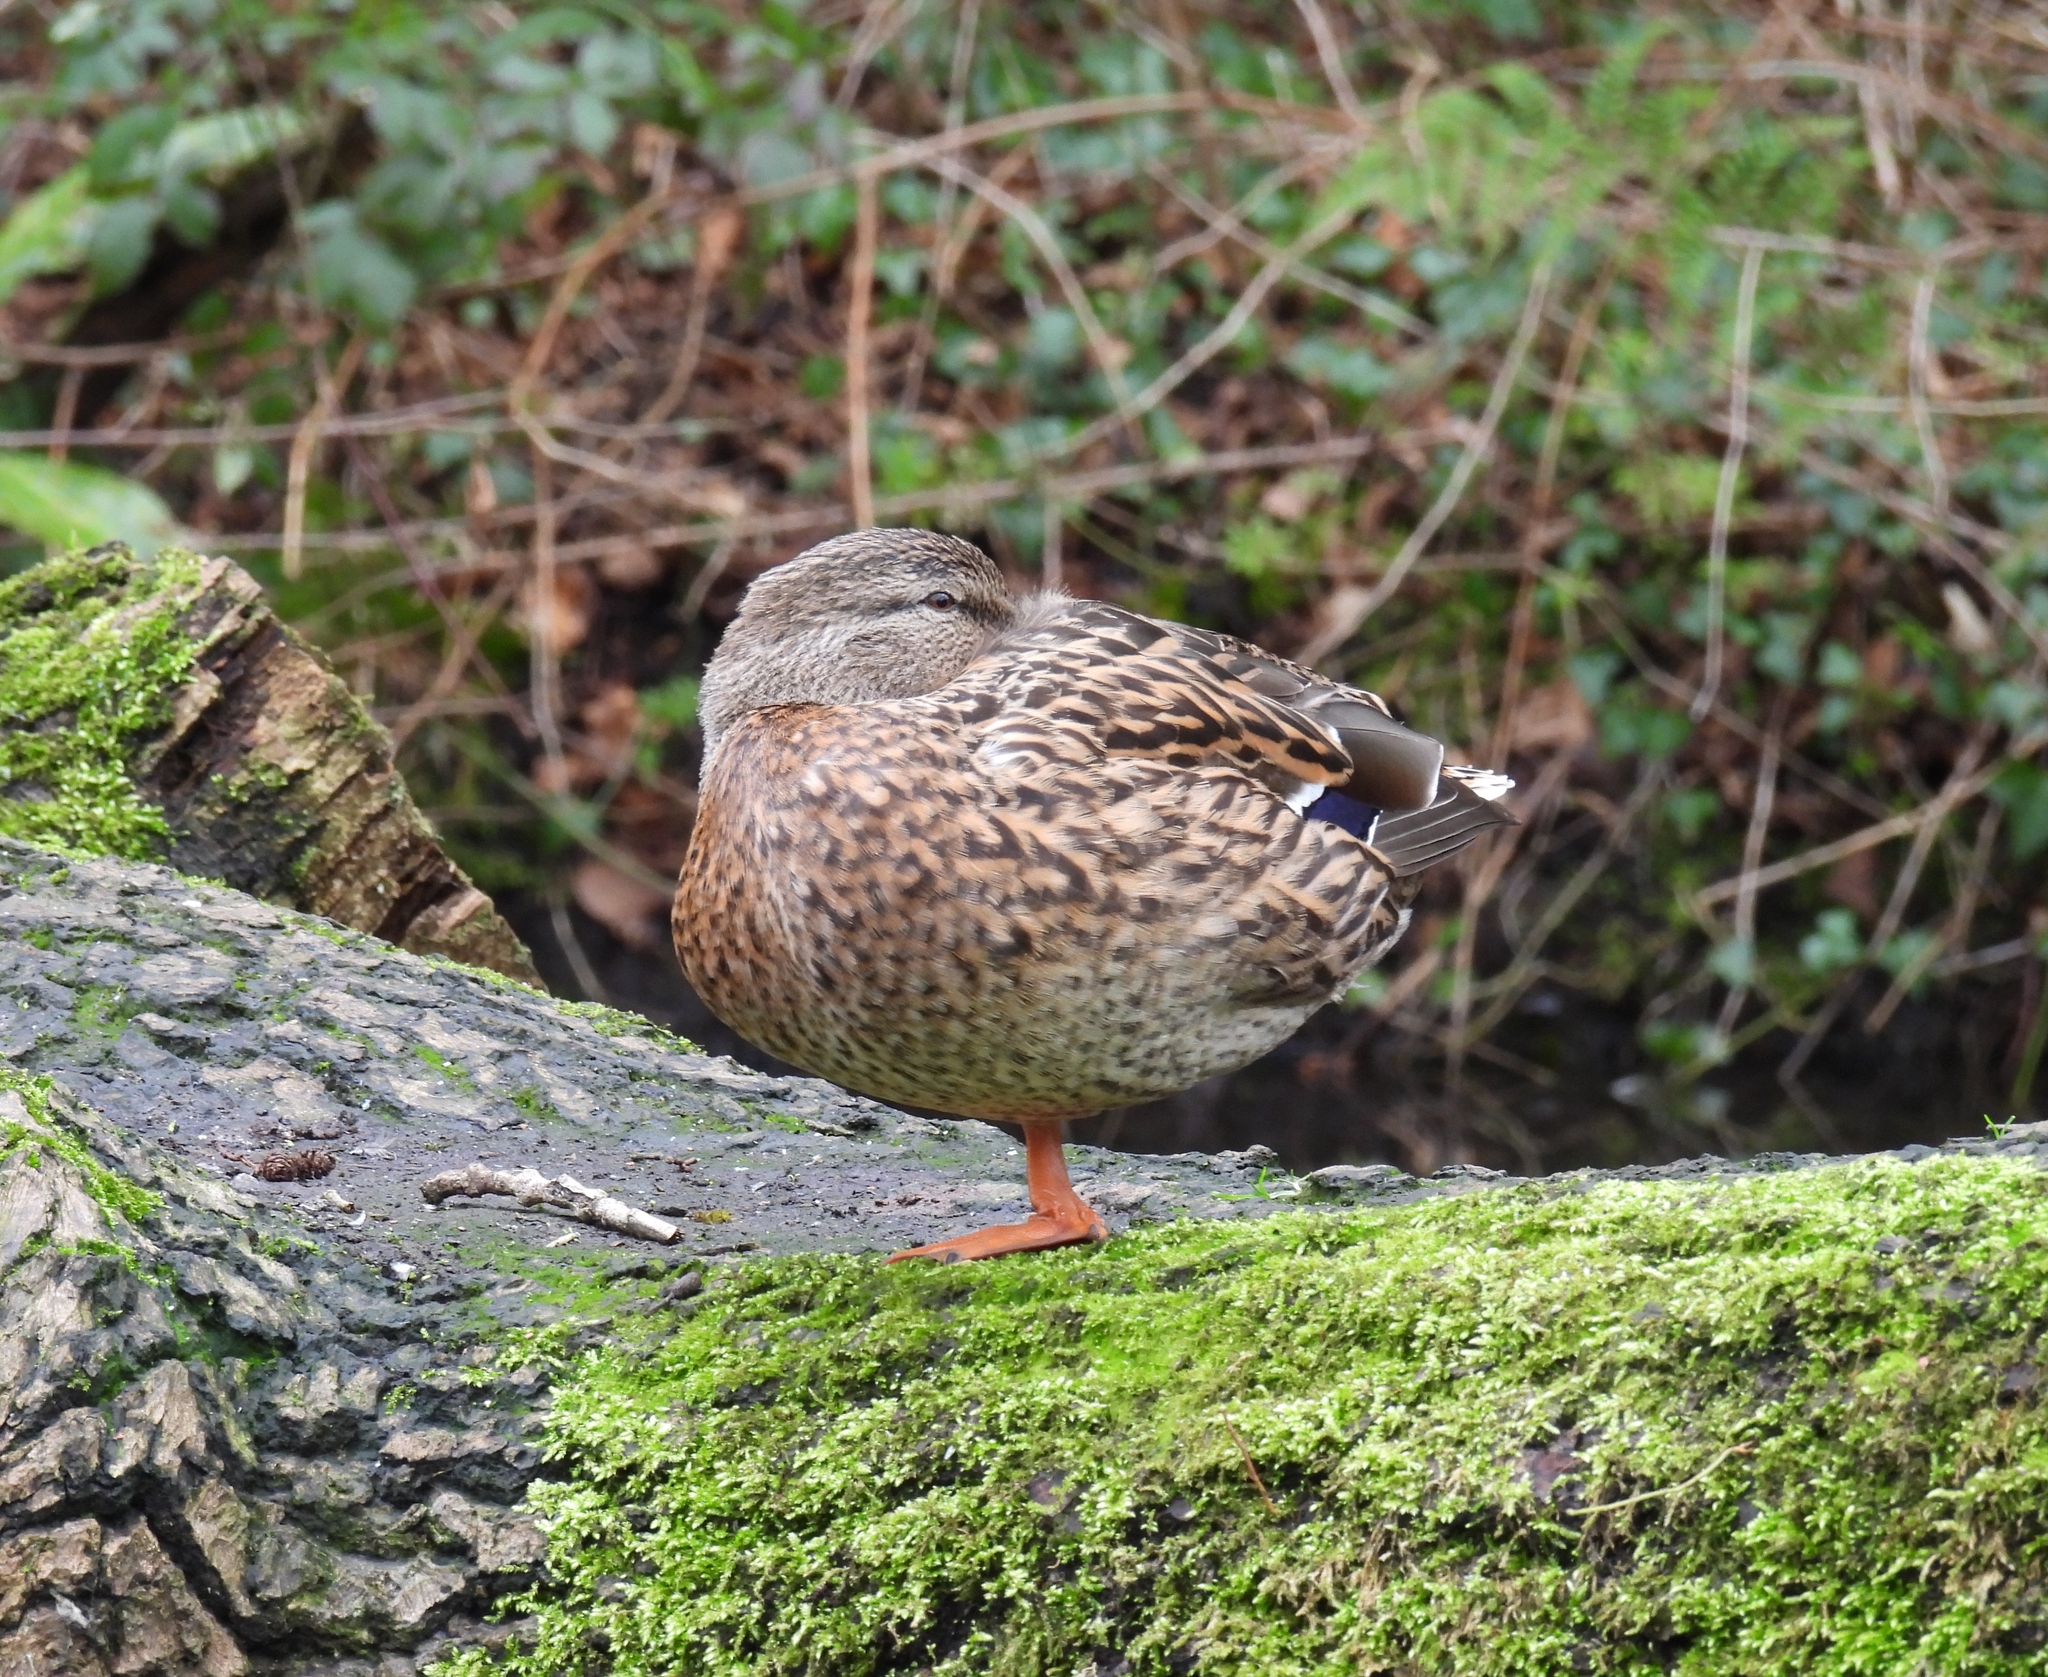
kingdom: Animalia
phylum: Chordata
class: Aves
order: Anseriformes
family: Anatidae
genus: Anas
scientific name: Anas platyrhynchos
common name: Mallard
